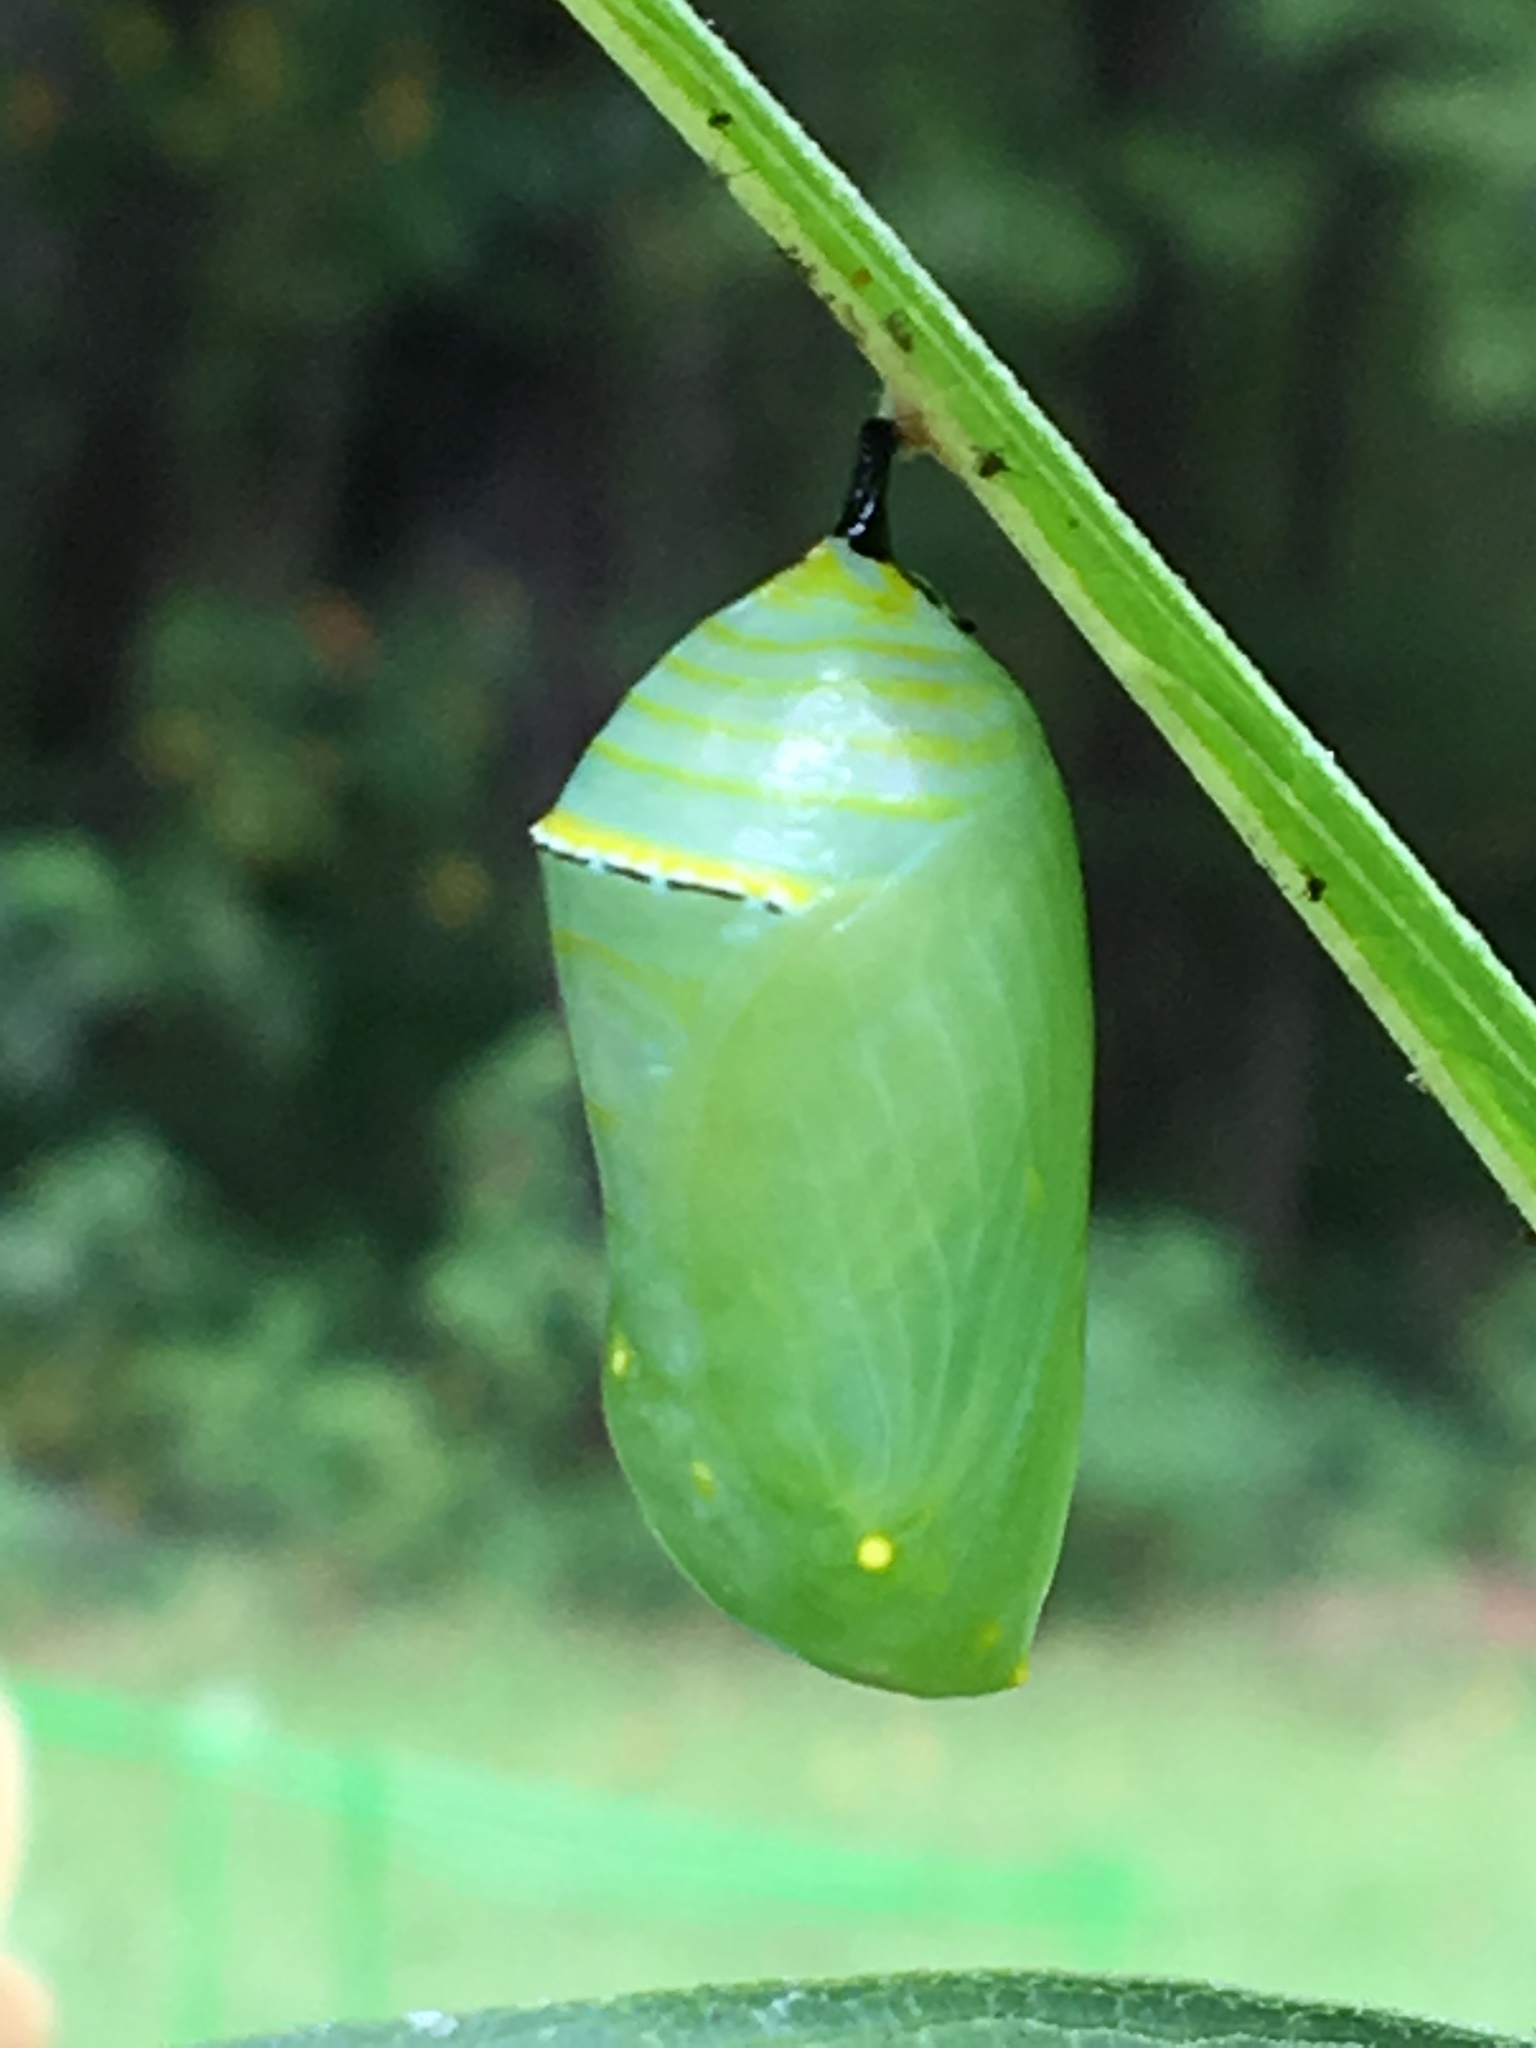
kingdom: Animalia
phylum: Arthropoda
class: Insecta
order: Lepidoptera
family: Nymphalidae
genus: Danaus
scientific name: Danaus plexippus
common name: Monarch
